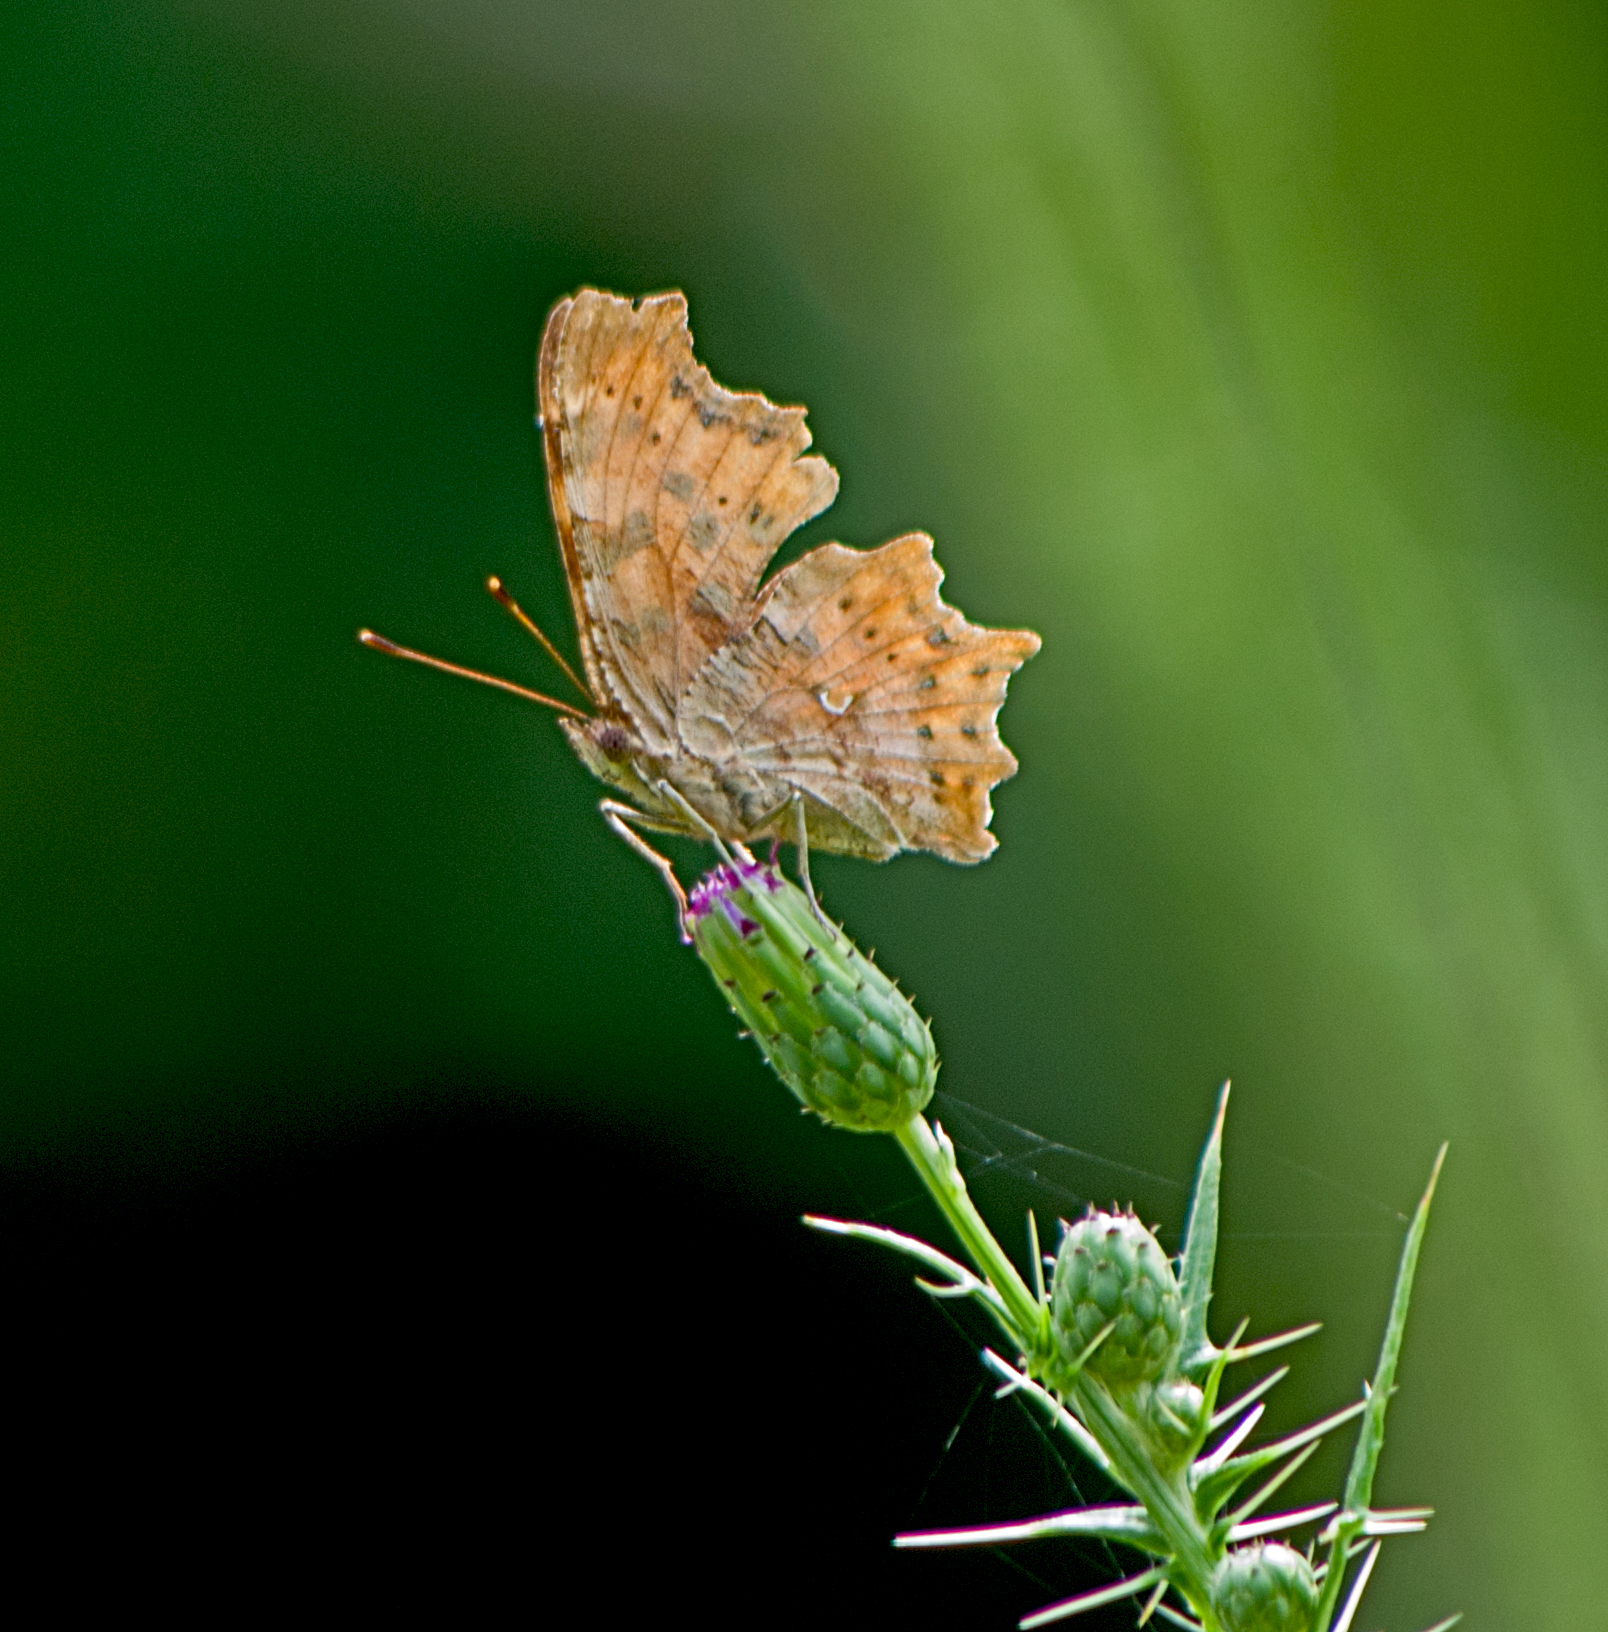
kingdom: Animalia
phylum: Arthropoda
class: Insecta
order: Lepidoptera
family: Nymphalidae
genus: Polygonia
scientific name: Polygonia c-album
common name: Comma
